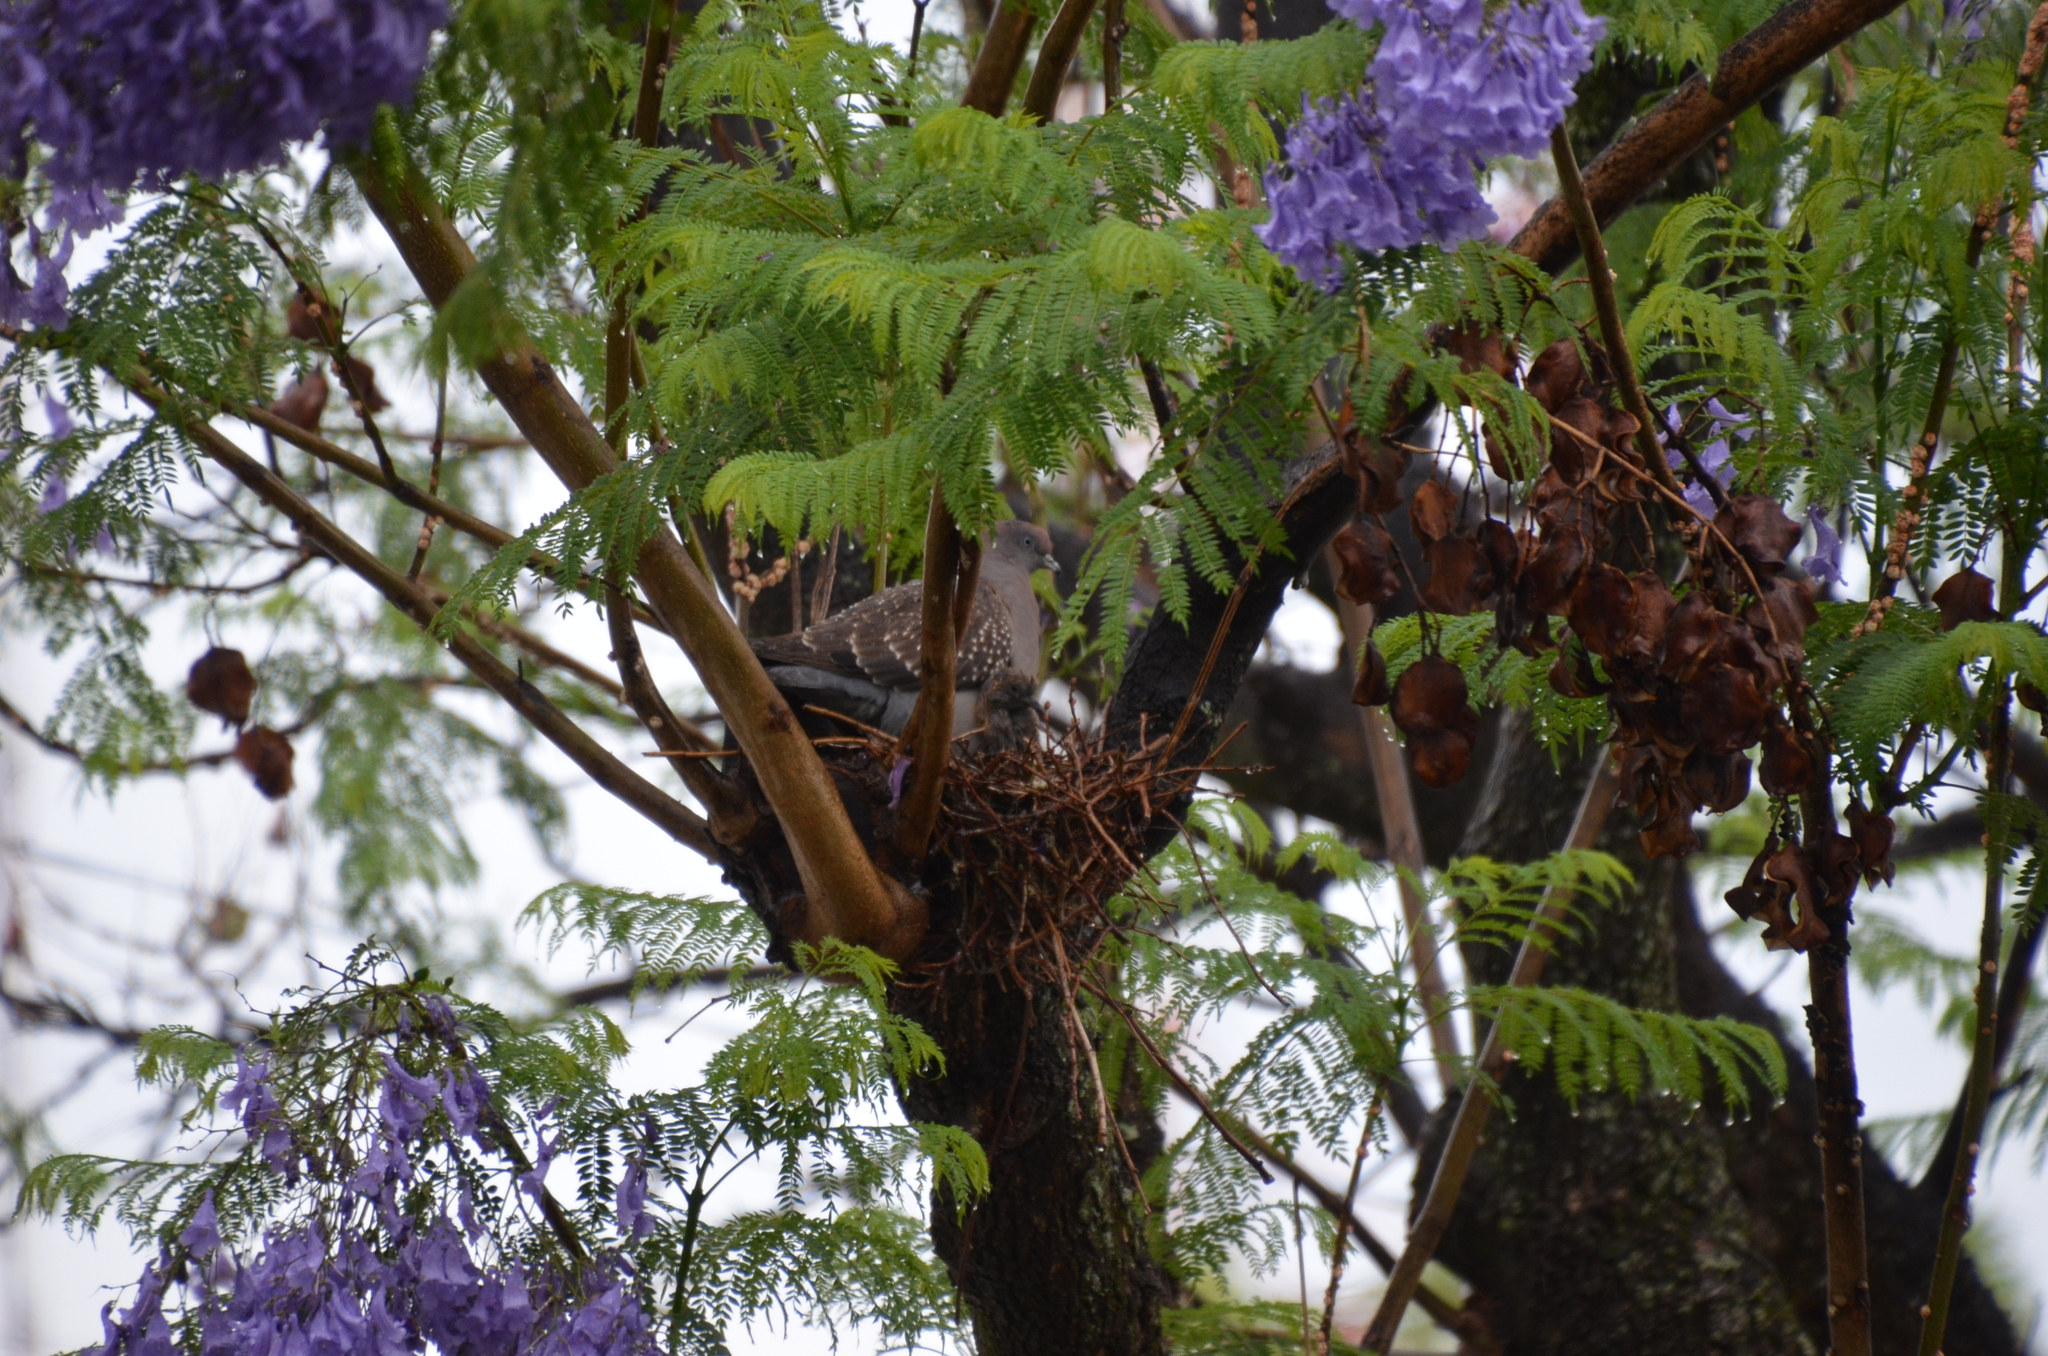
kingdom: Animalia
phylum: Chordata
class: Aves
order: Columbiformes
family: Columbidae
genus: Patagioenas
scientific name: Patagioenas maculosa
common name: Spot-winged pigeon
